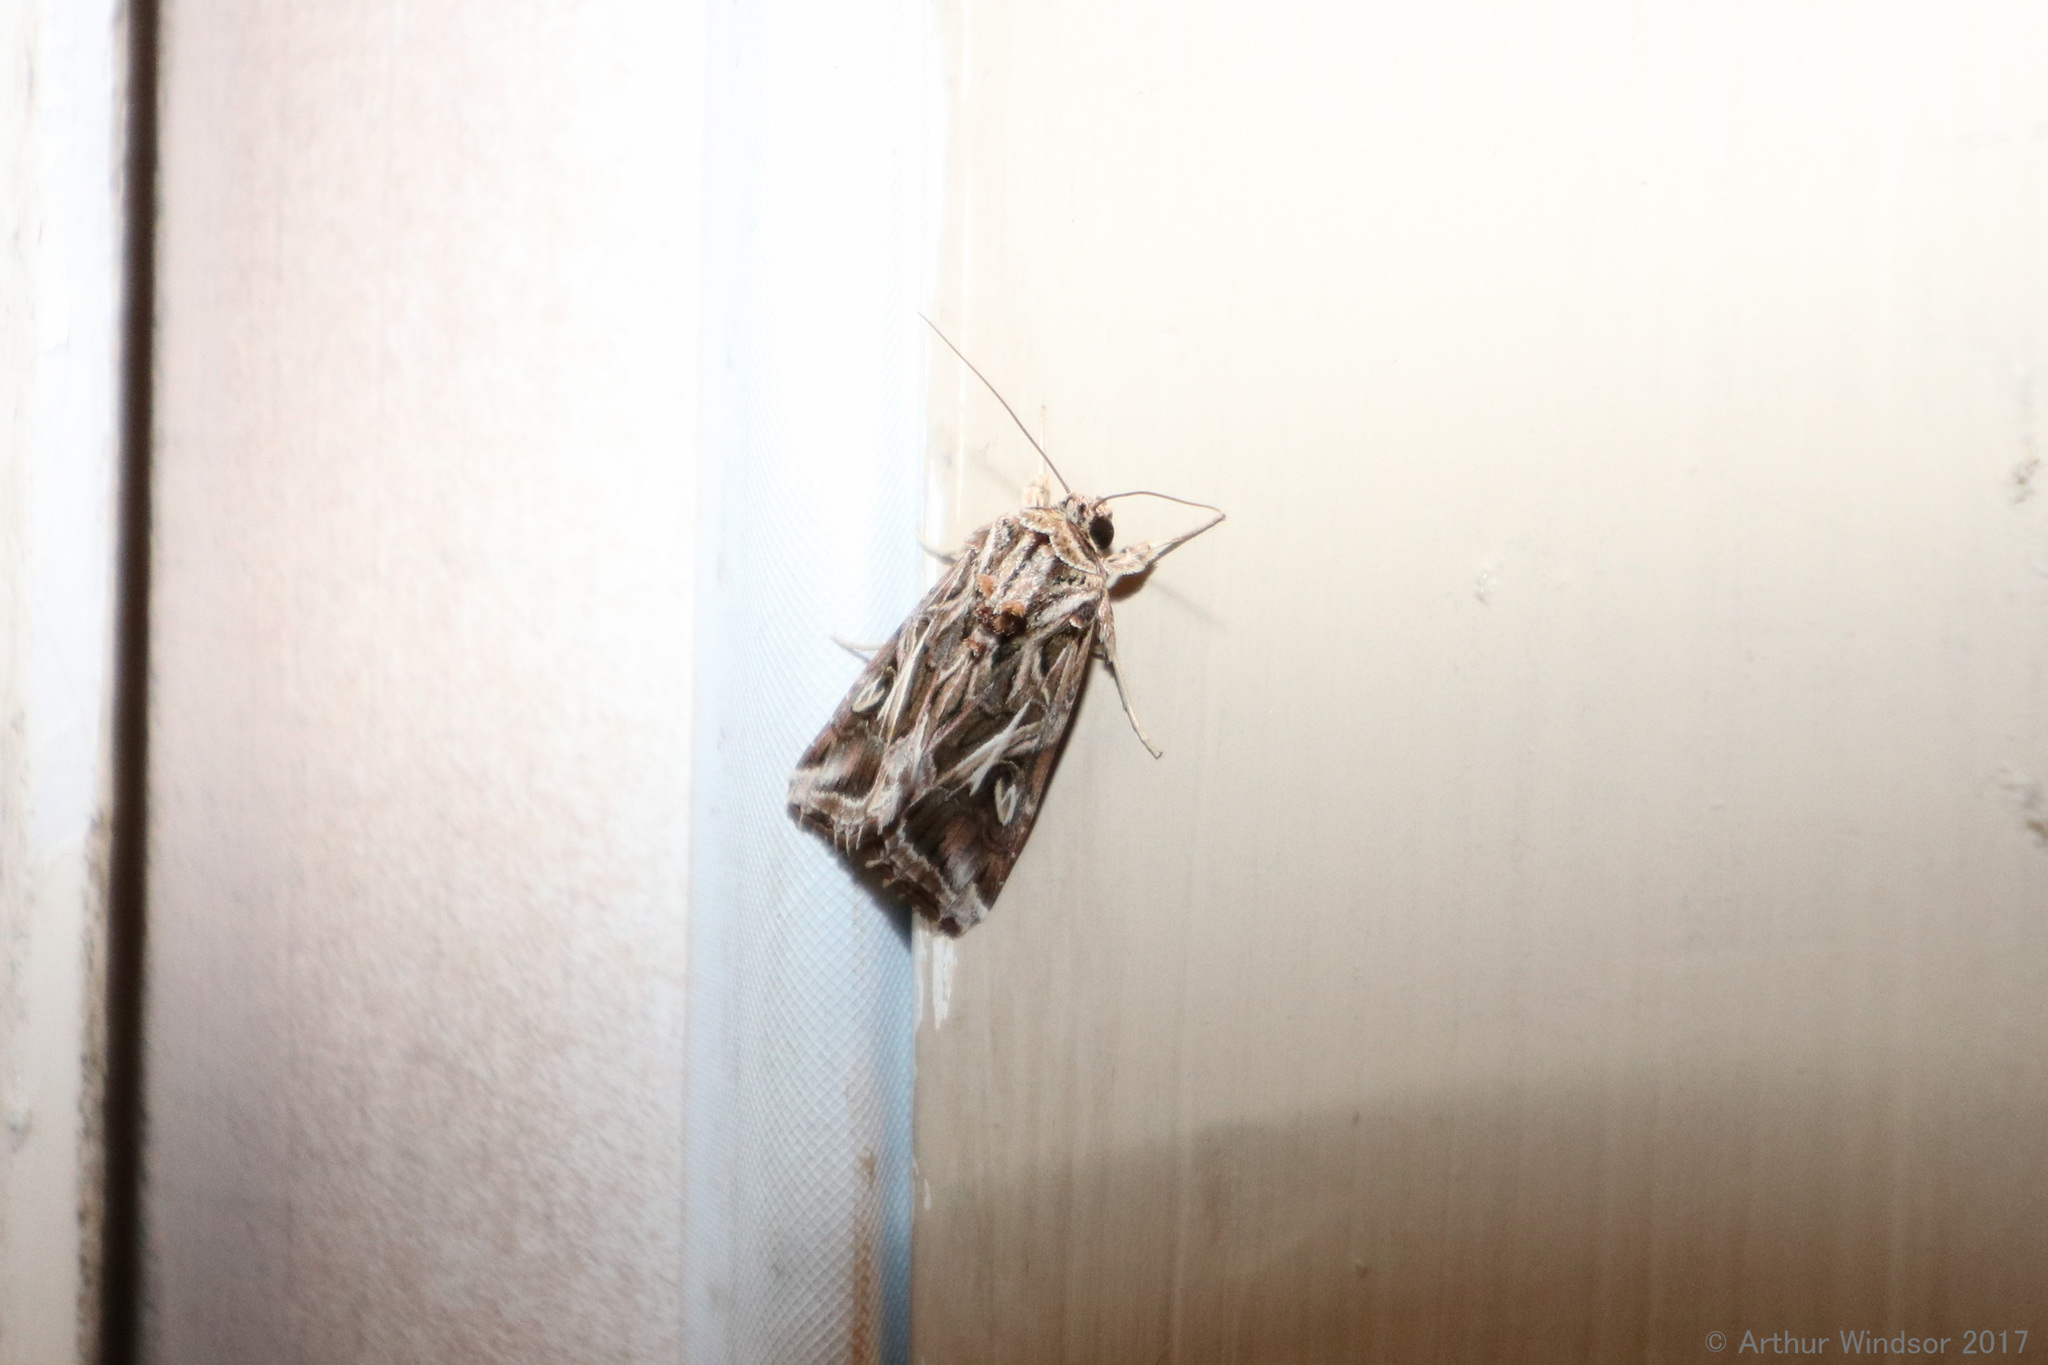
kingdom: Animalia
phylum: Arthropoda
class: Insecta
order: Lepidoptera
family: Noctuidae
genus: Spodoptera
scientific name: Spodoptera pulchella
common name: Caribbean armyworm moth
